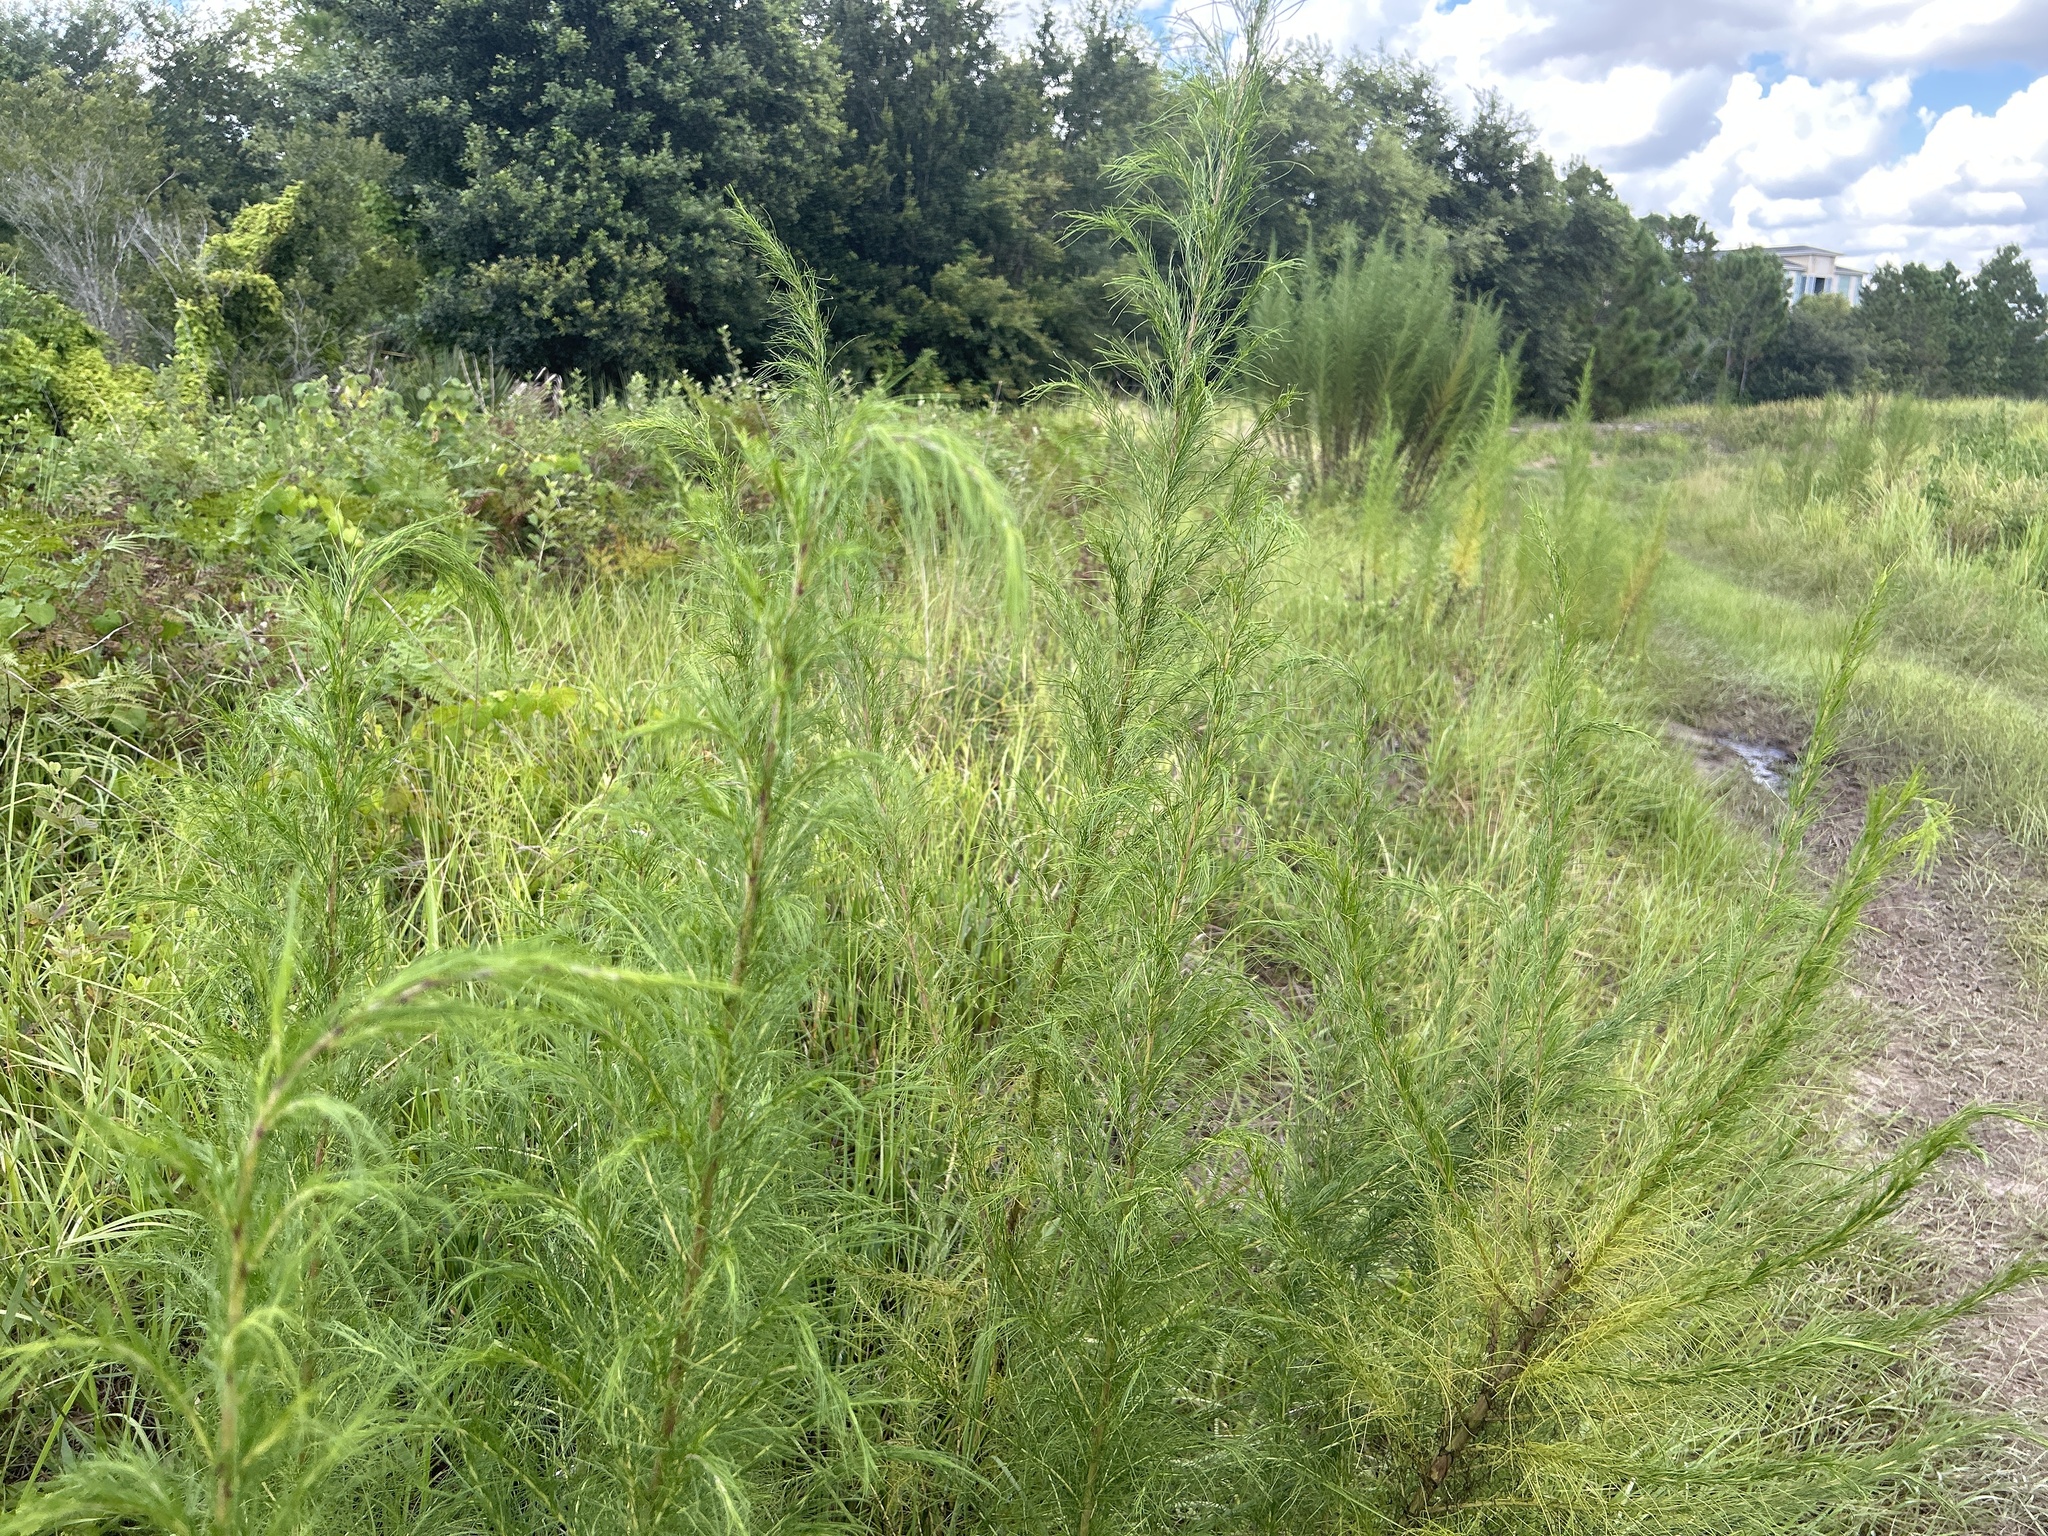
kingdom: Plantae
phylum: Tracheophyta
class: Magnoliopsida
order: Asterales
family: Asteraceae
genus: Eupatorium
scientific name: Eupatorium capillifolium
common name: Dog-fennel
